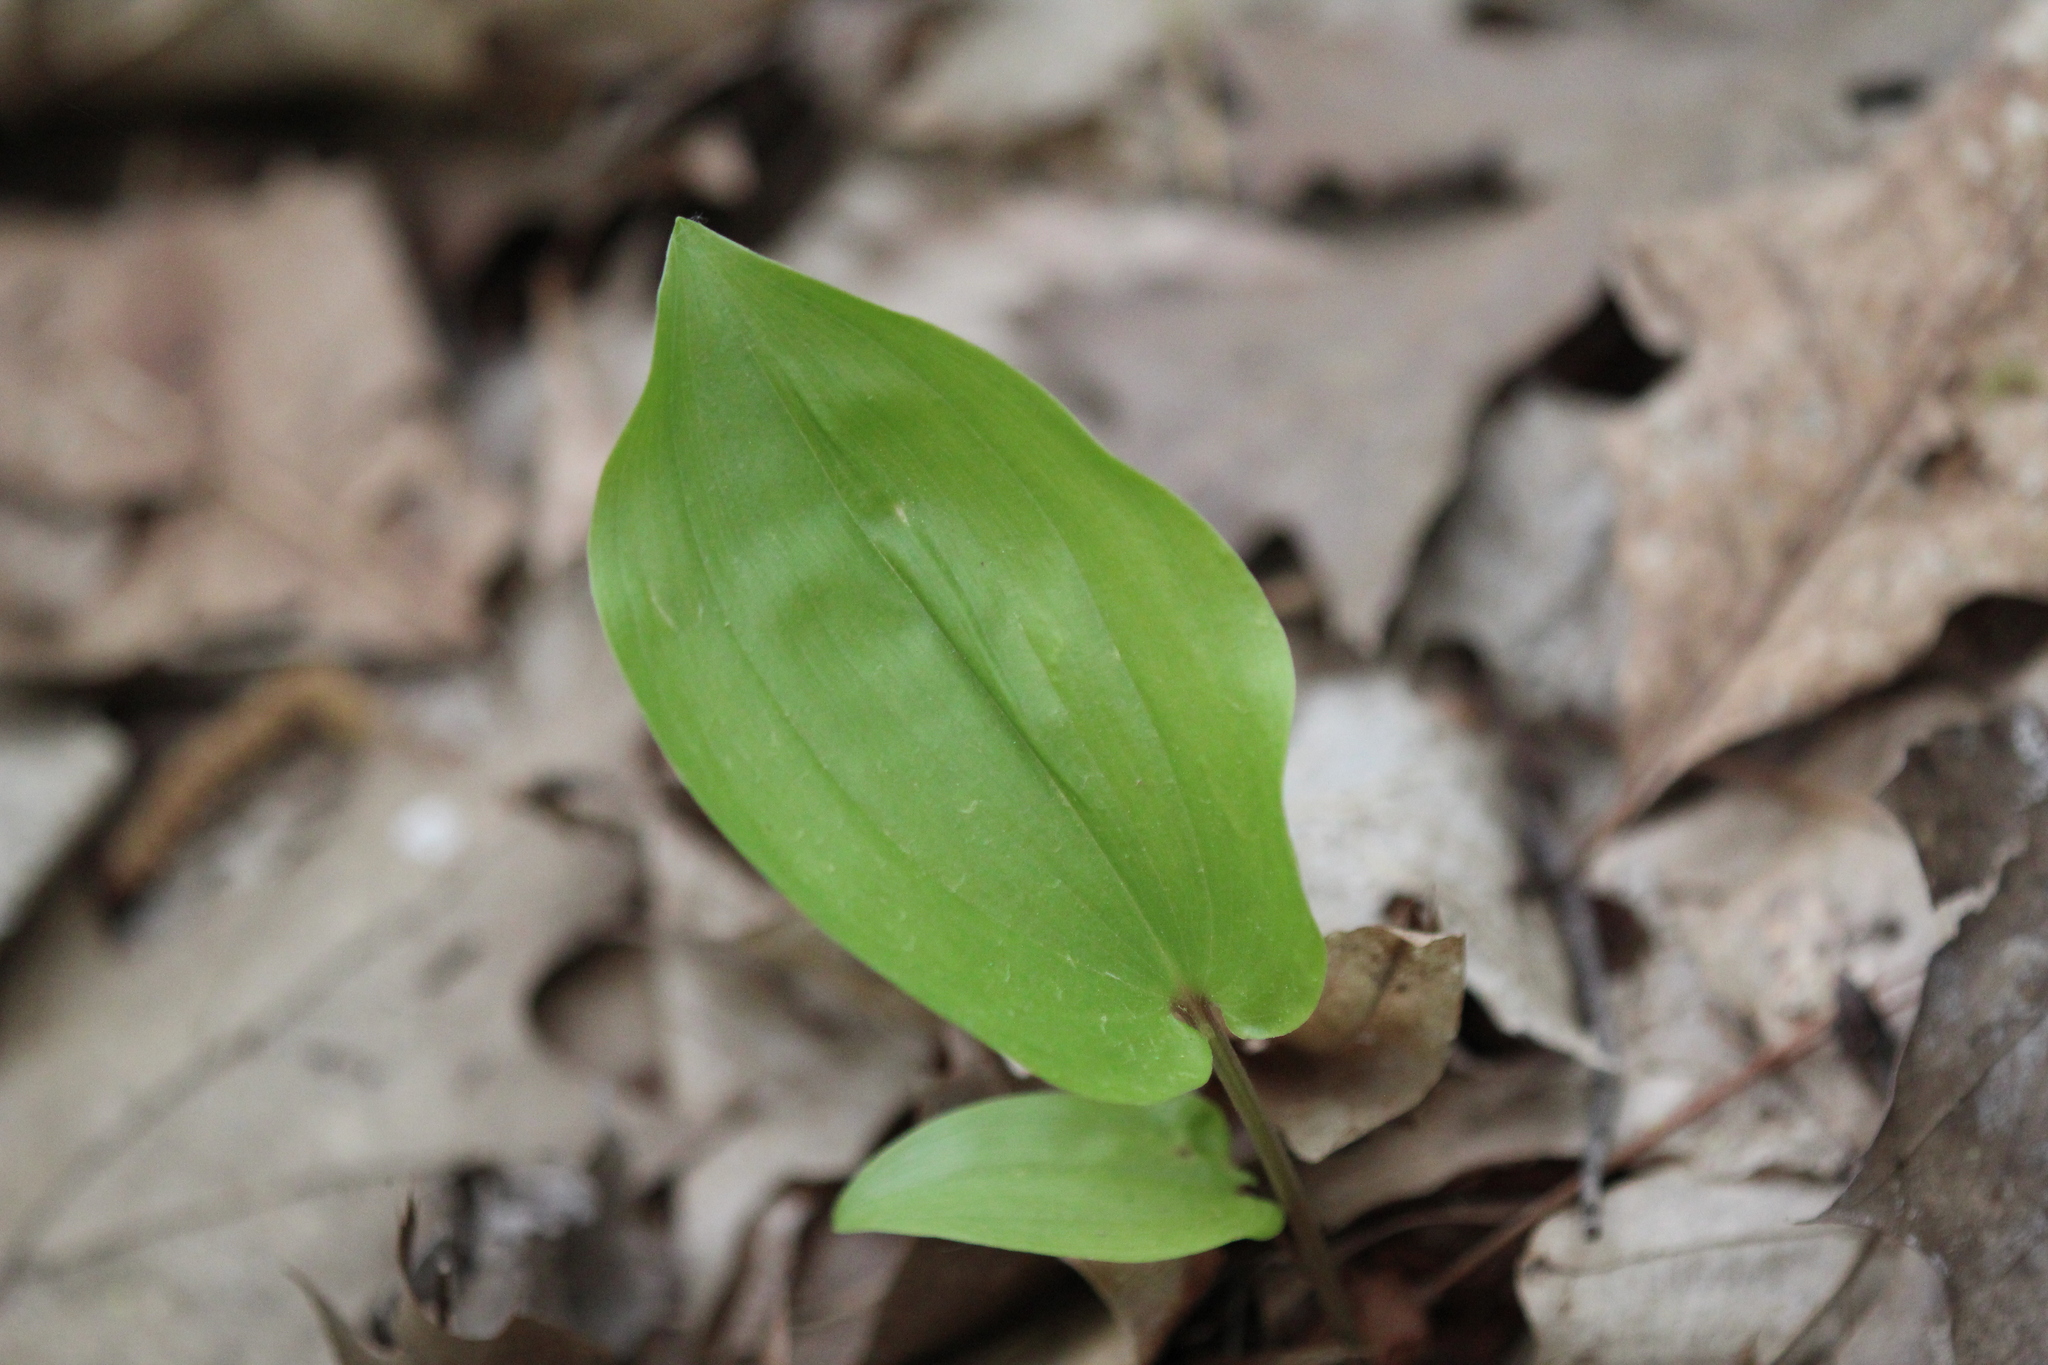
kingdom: Plantae
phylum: Tracheophyta
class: Liliopsida
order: Asparagales
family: Asparagaceae
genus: Maianthemum
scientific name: Maianthemum canadense
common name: False lily-of-the-valley
